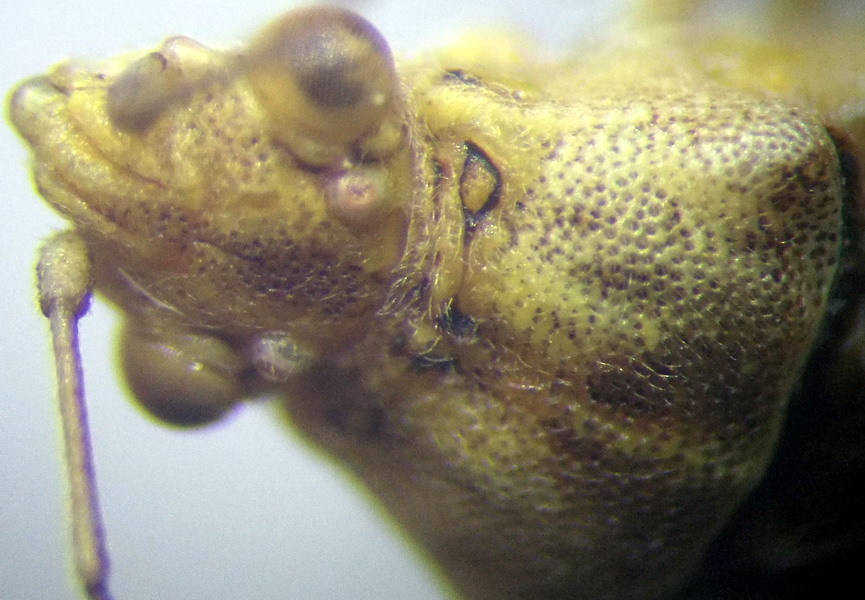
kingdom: Animalia
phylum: Arthropoda
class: Insecta
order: Hemiptera
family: Rhopalidae
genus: Stictopleurus
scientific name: Stictopleurus subtomentosus
